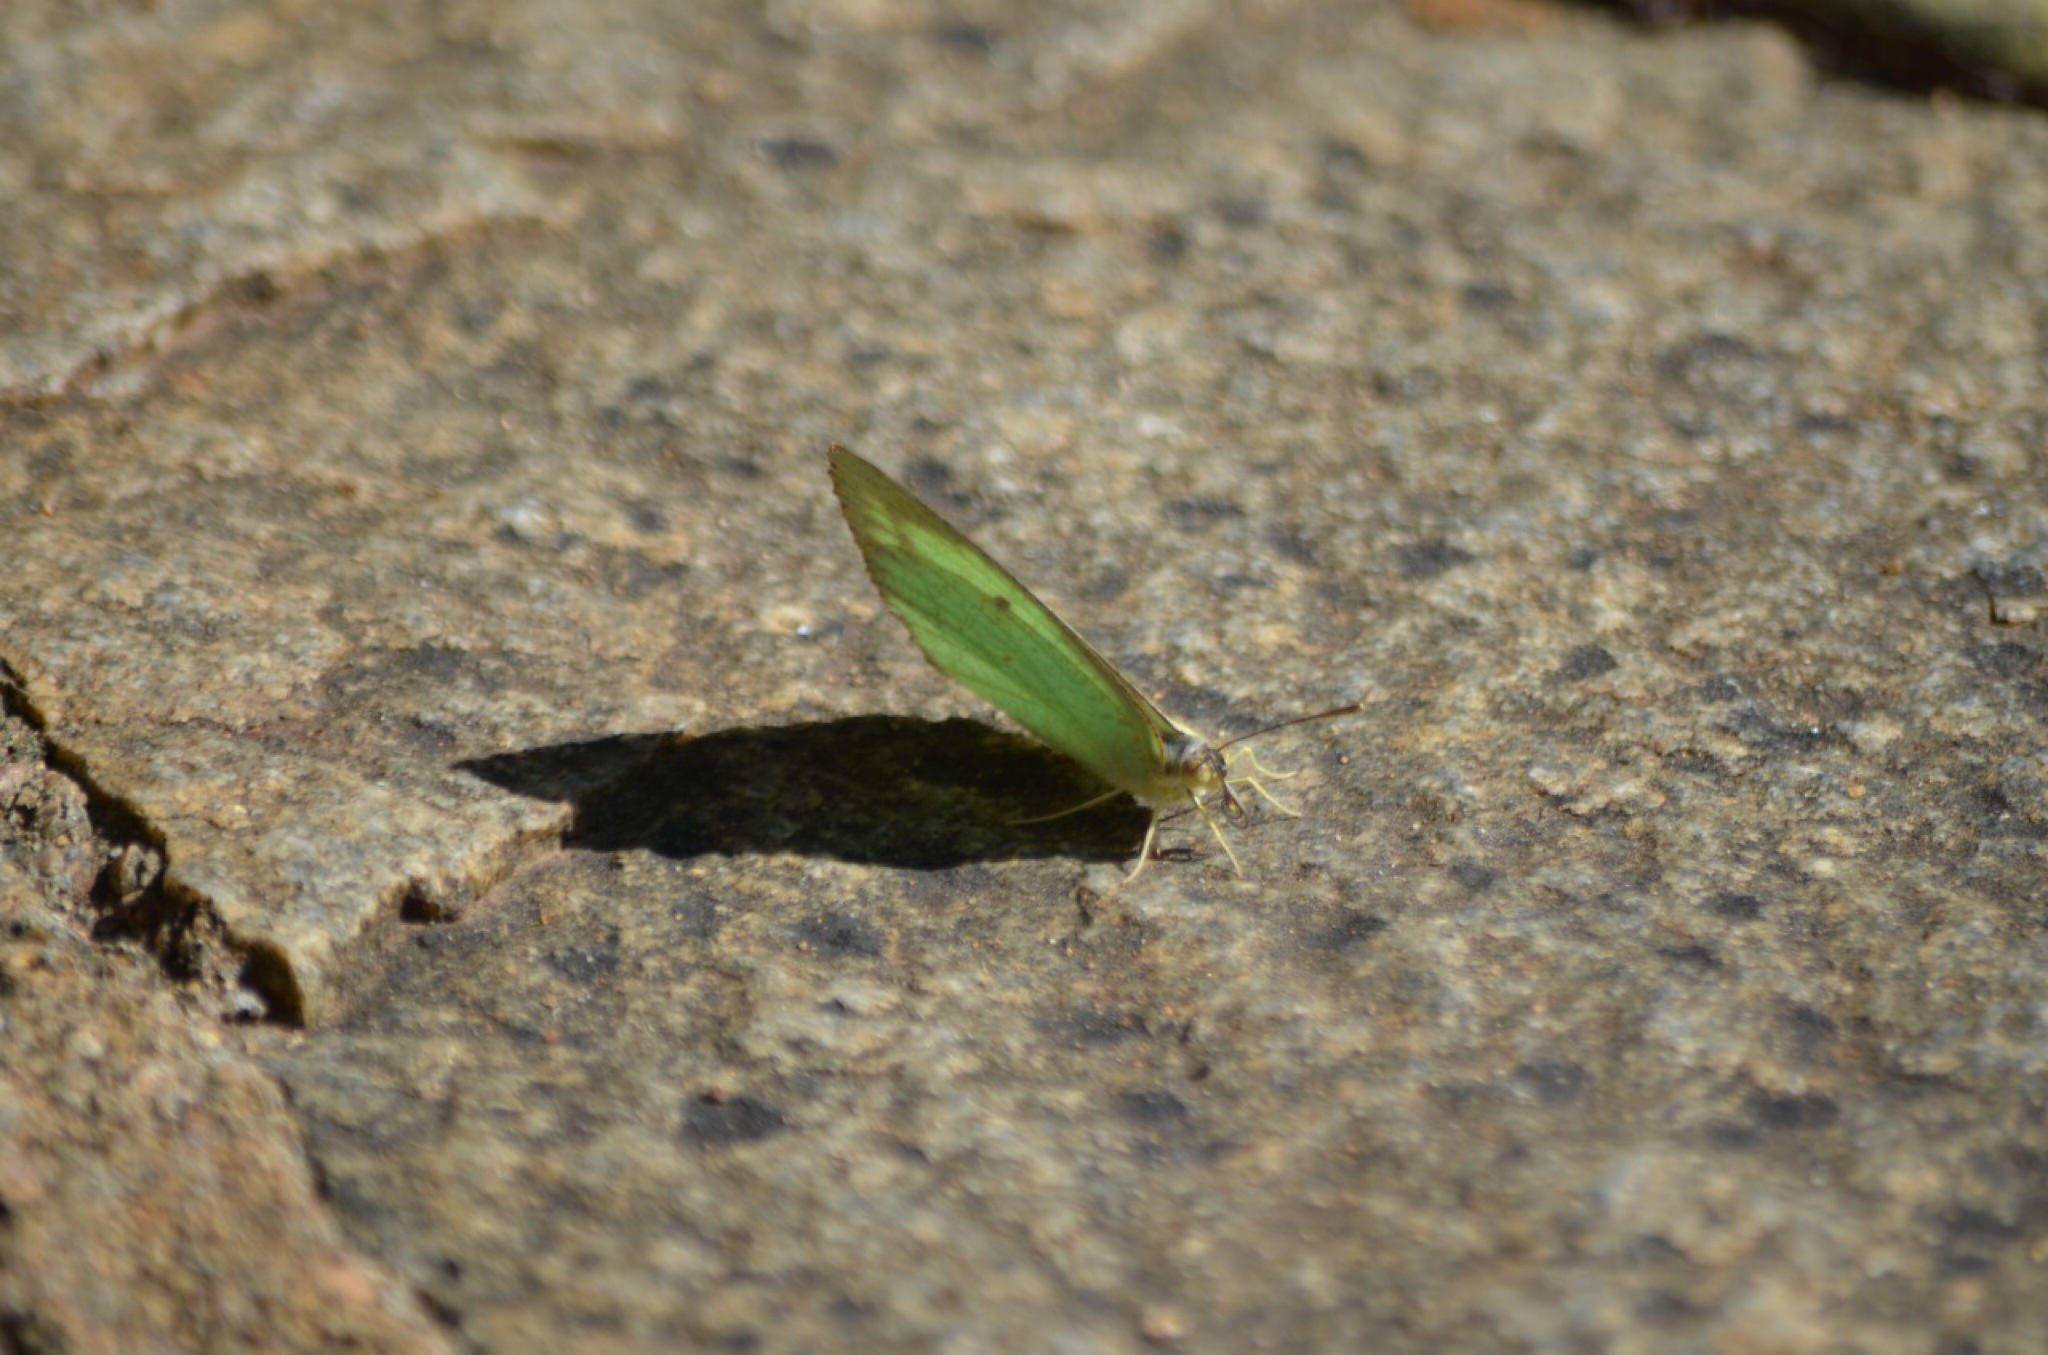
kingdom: Animalia
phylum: Arthropoda
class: Insecta
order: Lepidoptera
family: Pieridae
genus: Catopsilia
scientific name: Catopsilia pyranthe
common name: Mottled emigrant
